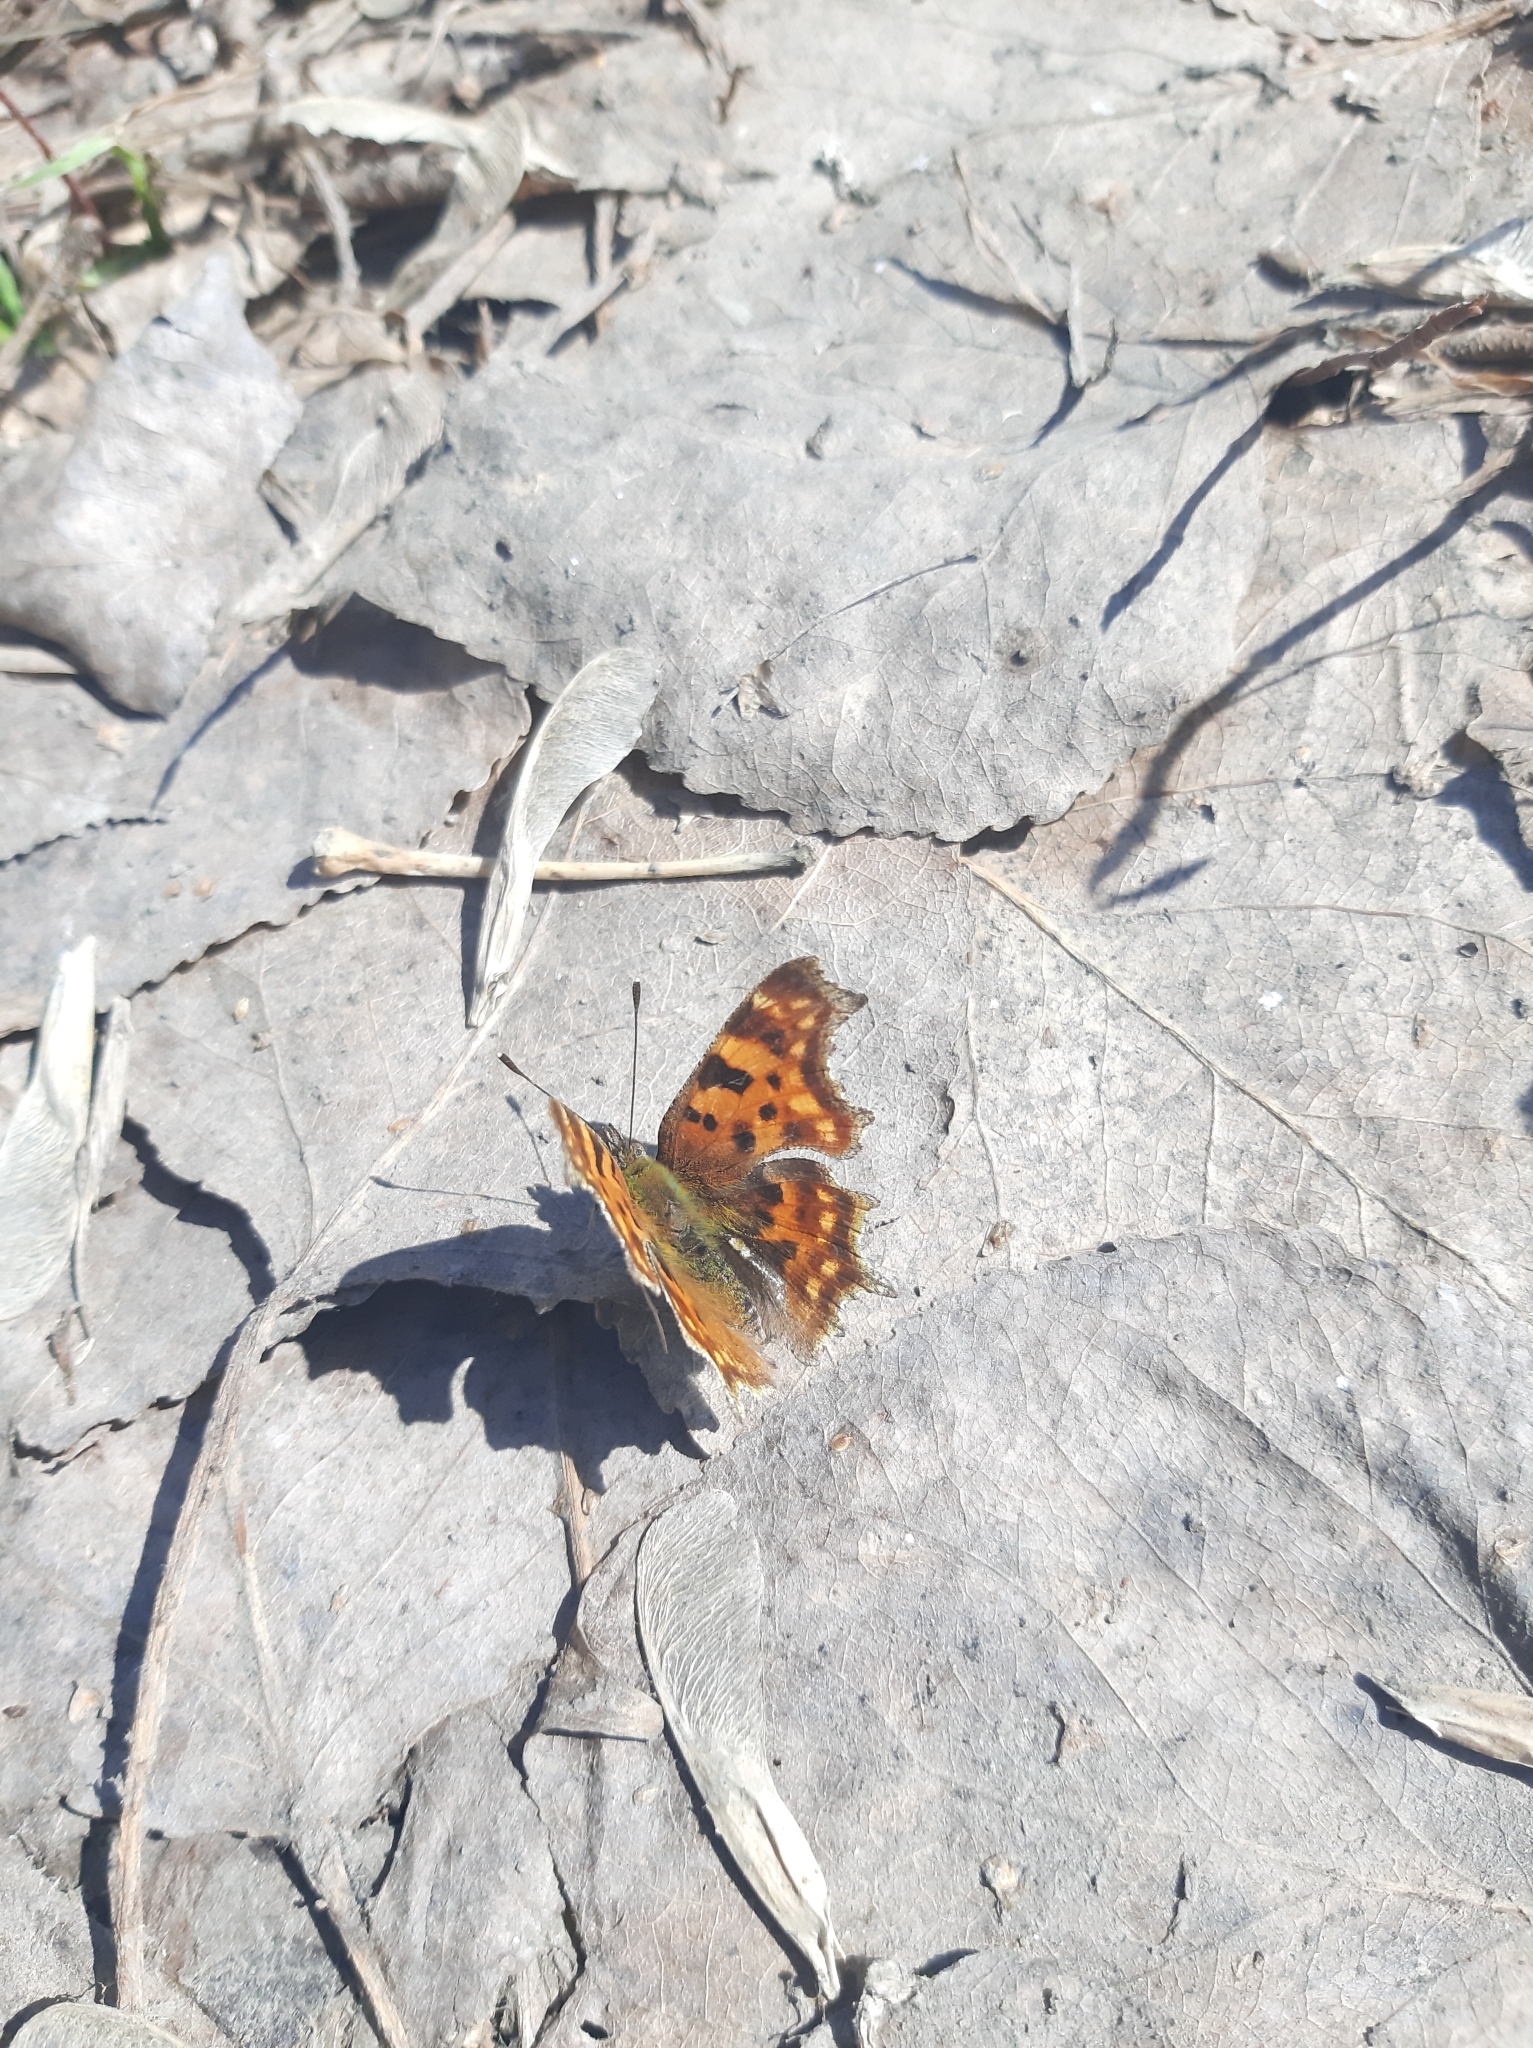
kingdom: Animalia
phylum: Arthropoda
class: Insecta
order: Lepidoptera
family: Nymphalidae
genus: Polygonia
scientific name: Polygonia c-album
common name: Comma
